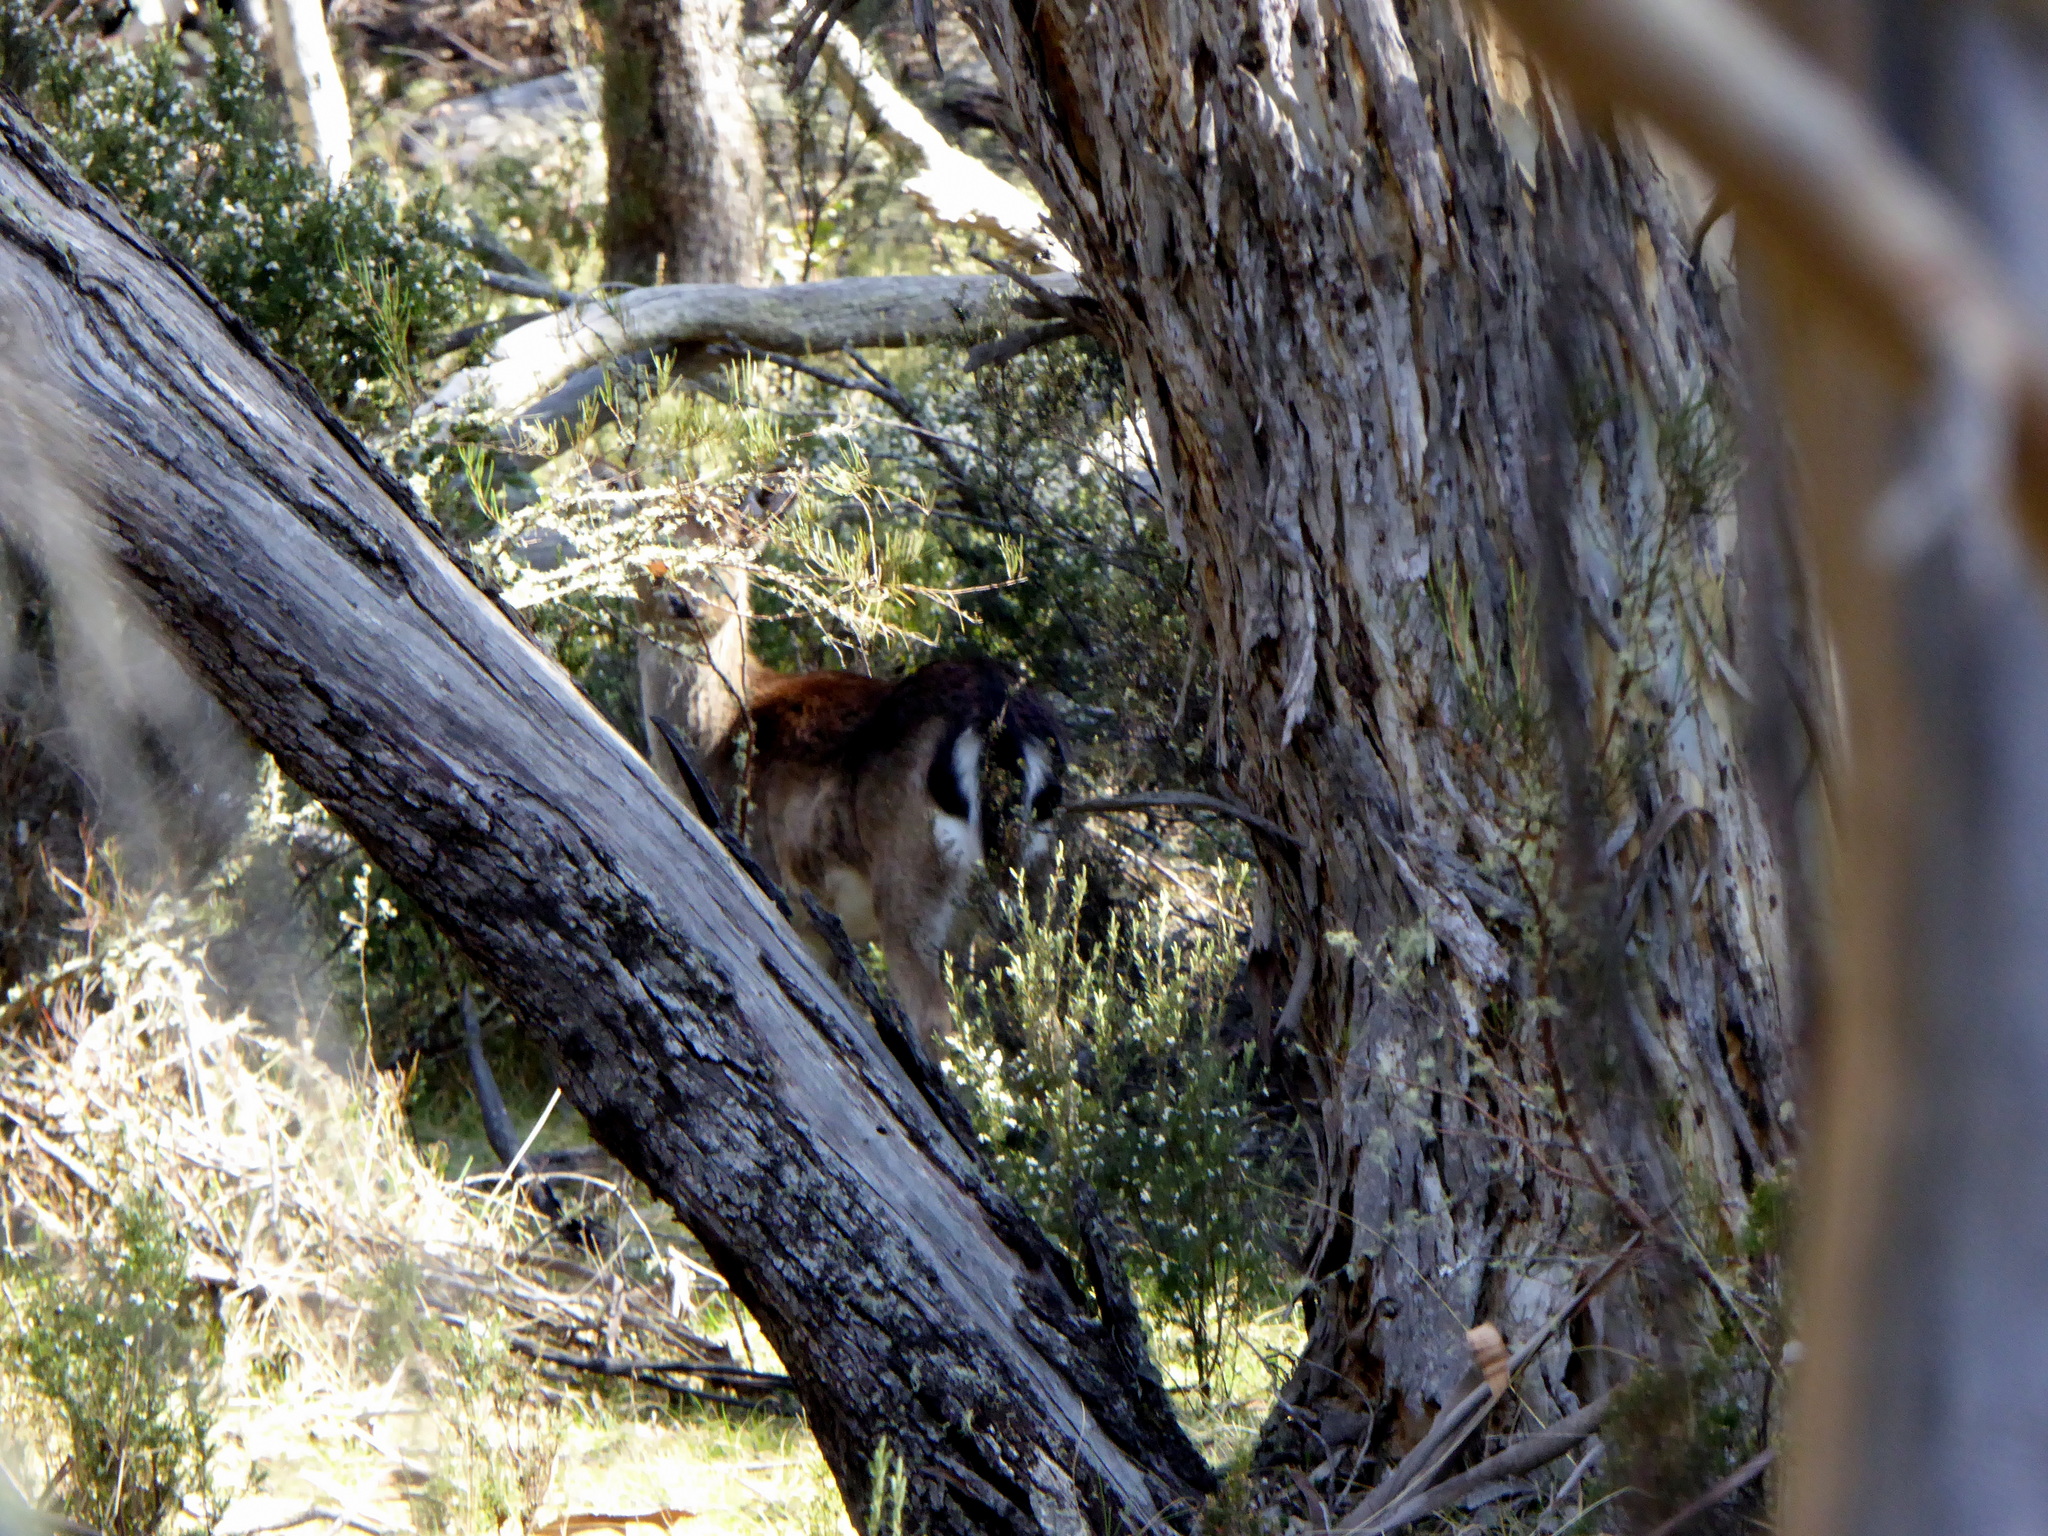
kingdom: Animalia
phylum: Chordata
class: Mammalia
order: Artiodactyla
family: Cervidae
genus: Dama
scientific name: Dama dama
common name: Fallow deer
